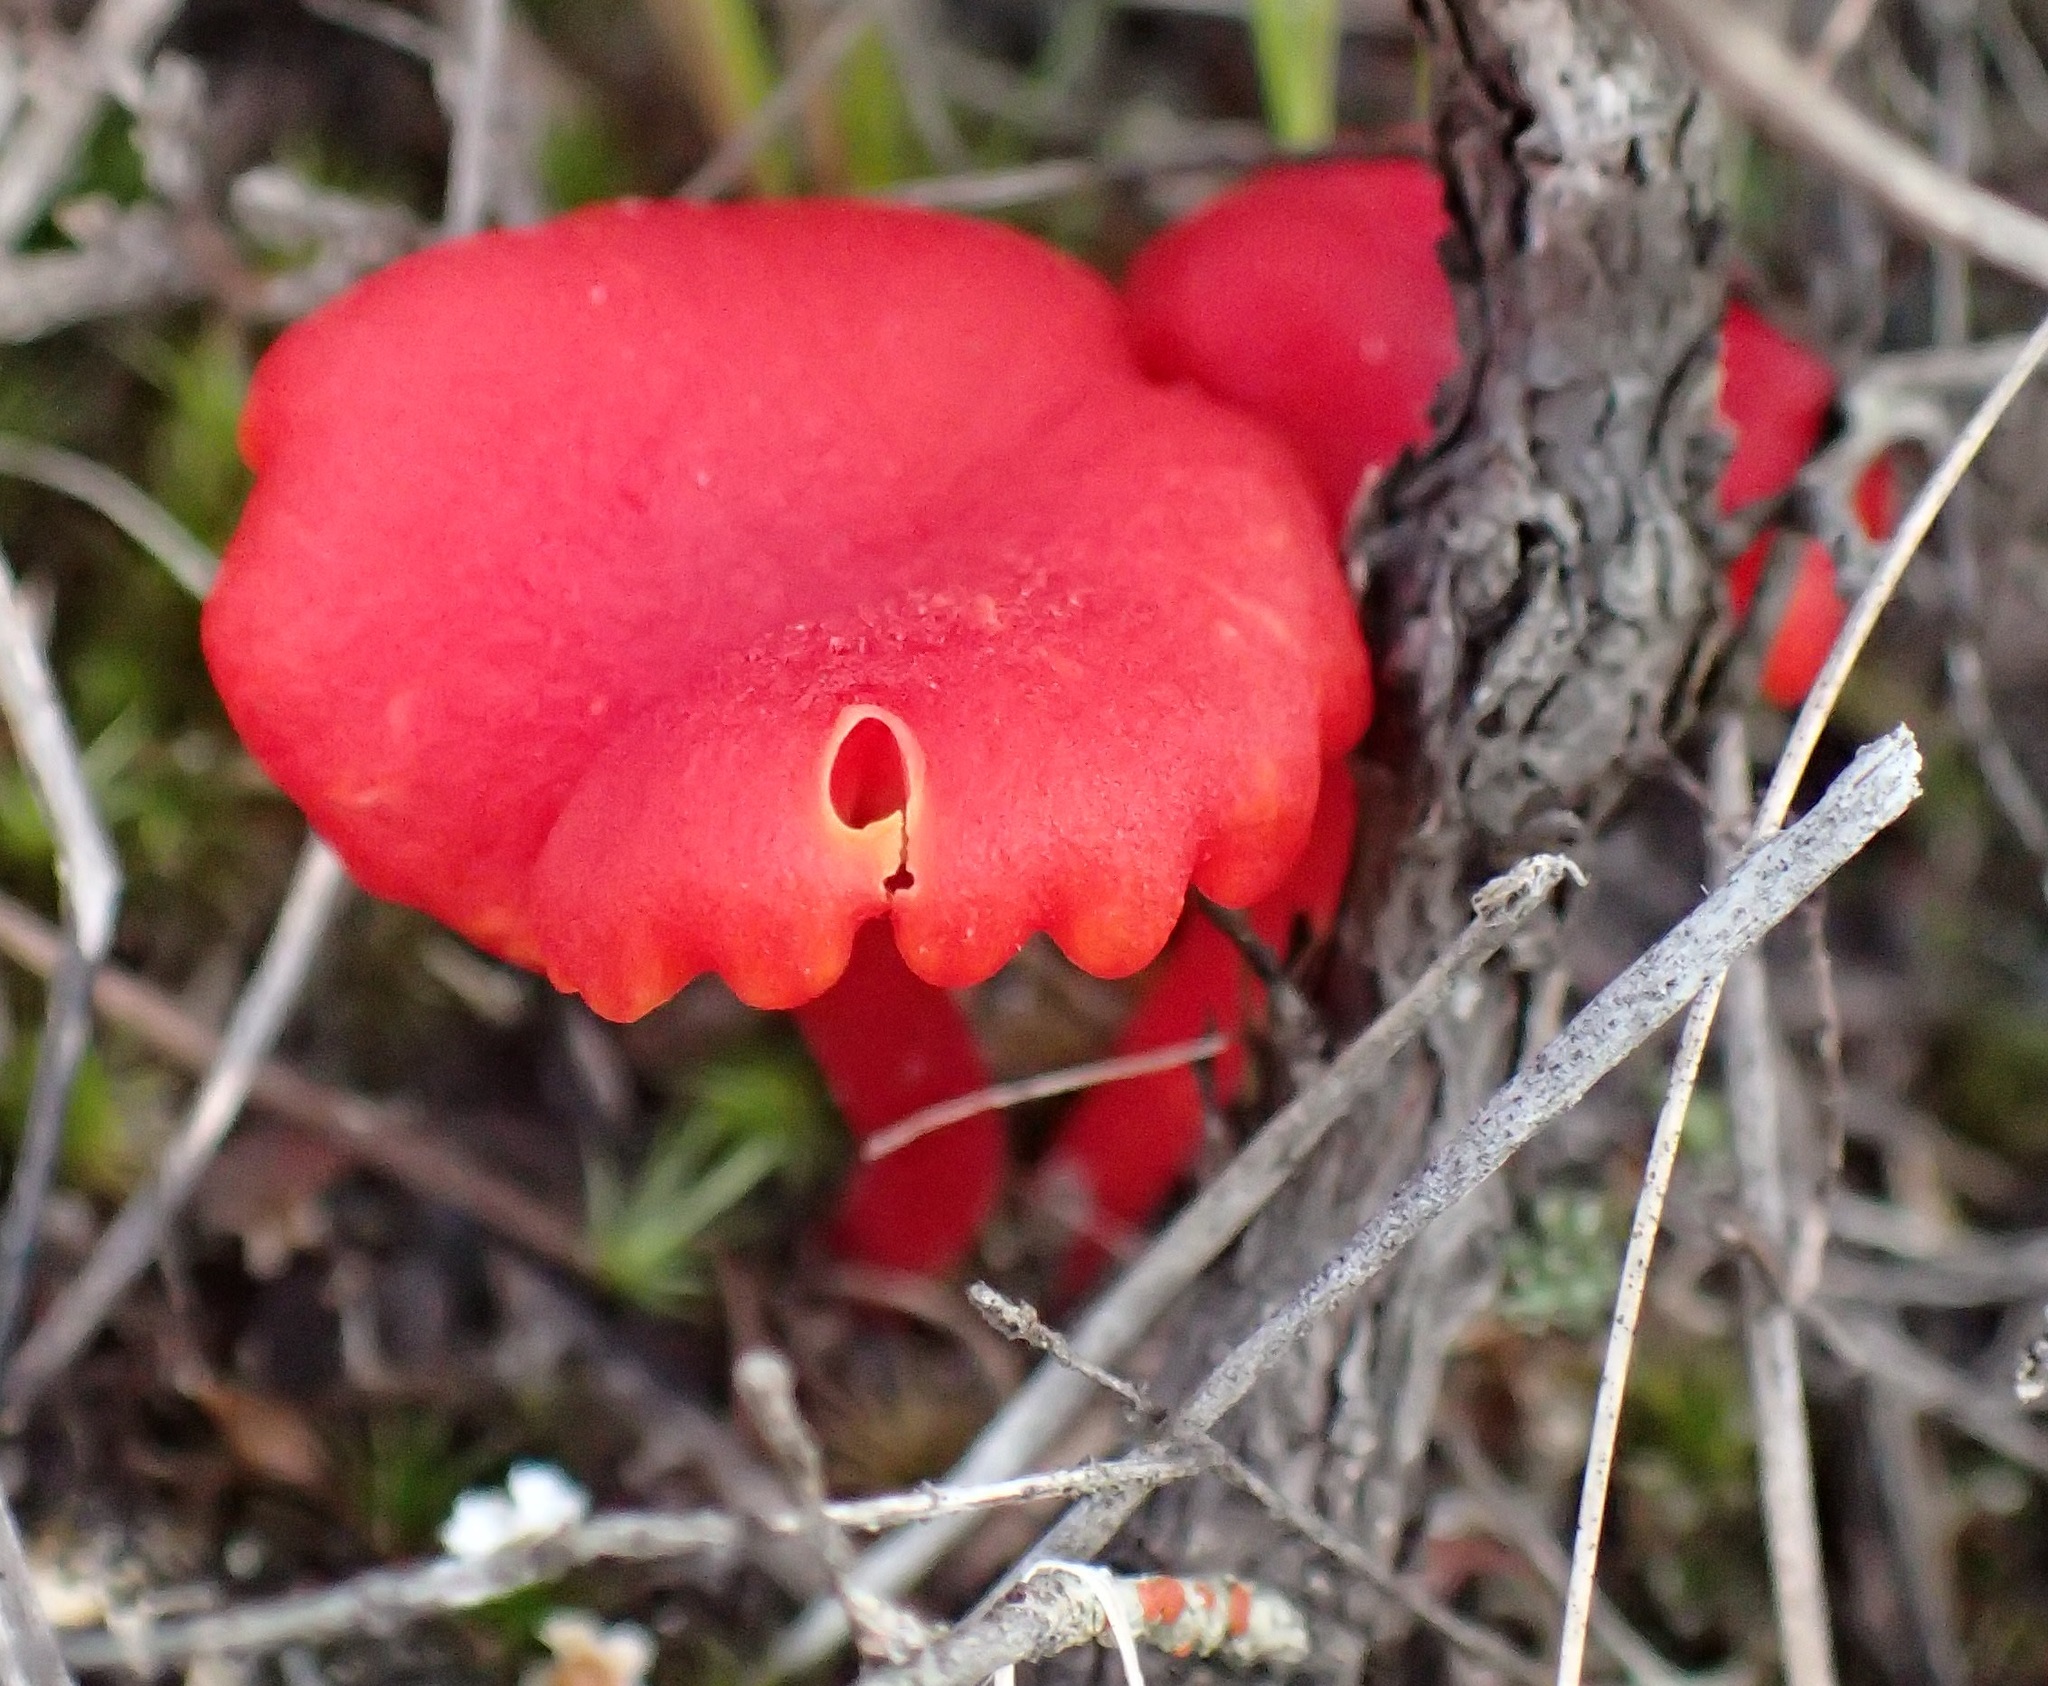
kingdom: Fungi
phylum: Basidiomycota
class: Agaricomycetes
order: Agaricales
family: Hygrophoraceae
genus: Hygrocybe
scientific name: Hygrocybe firma
